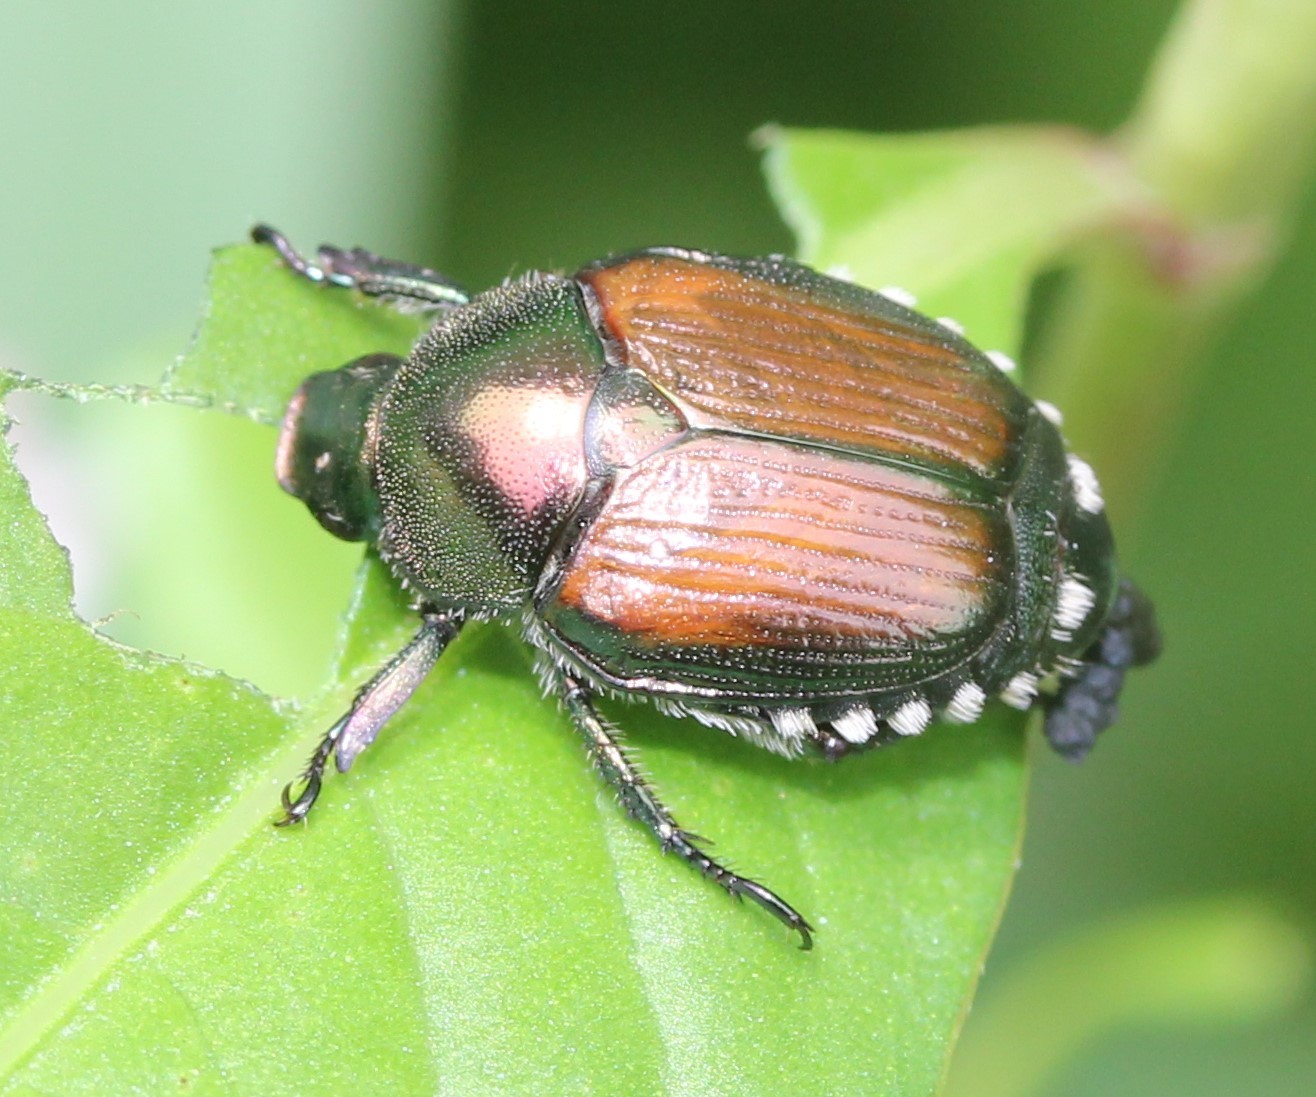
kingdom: Animalia
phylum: Arthropoda
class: Insecta
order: Coleoptera
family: Scarabaeidae
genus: Popillia
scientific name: Popillia japonica
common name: Japanese beetle
